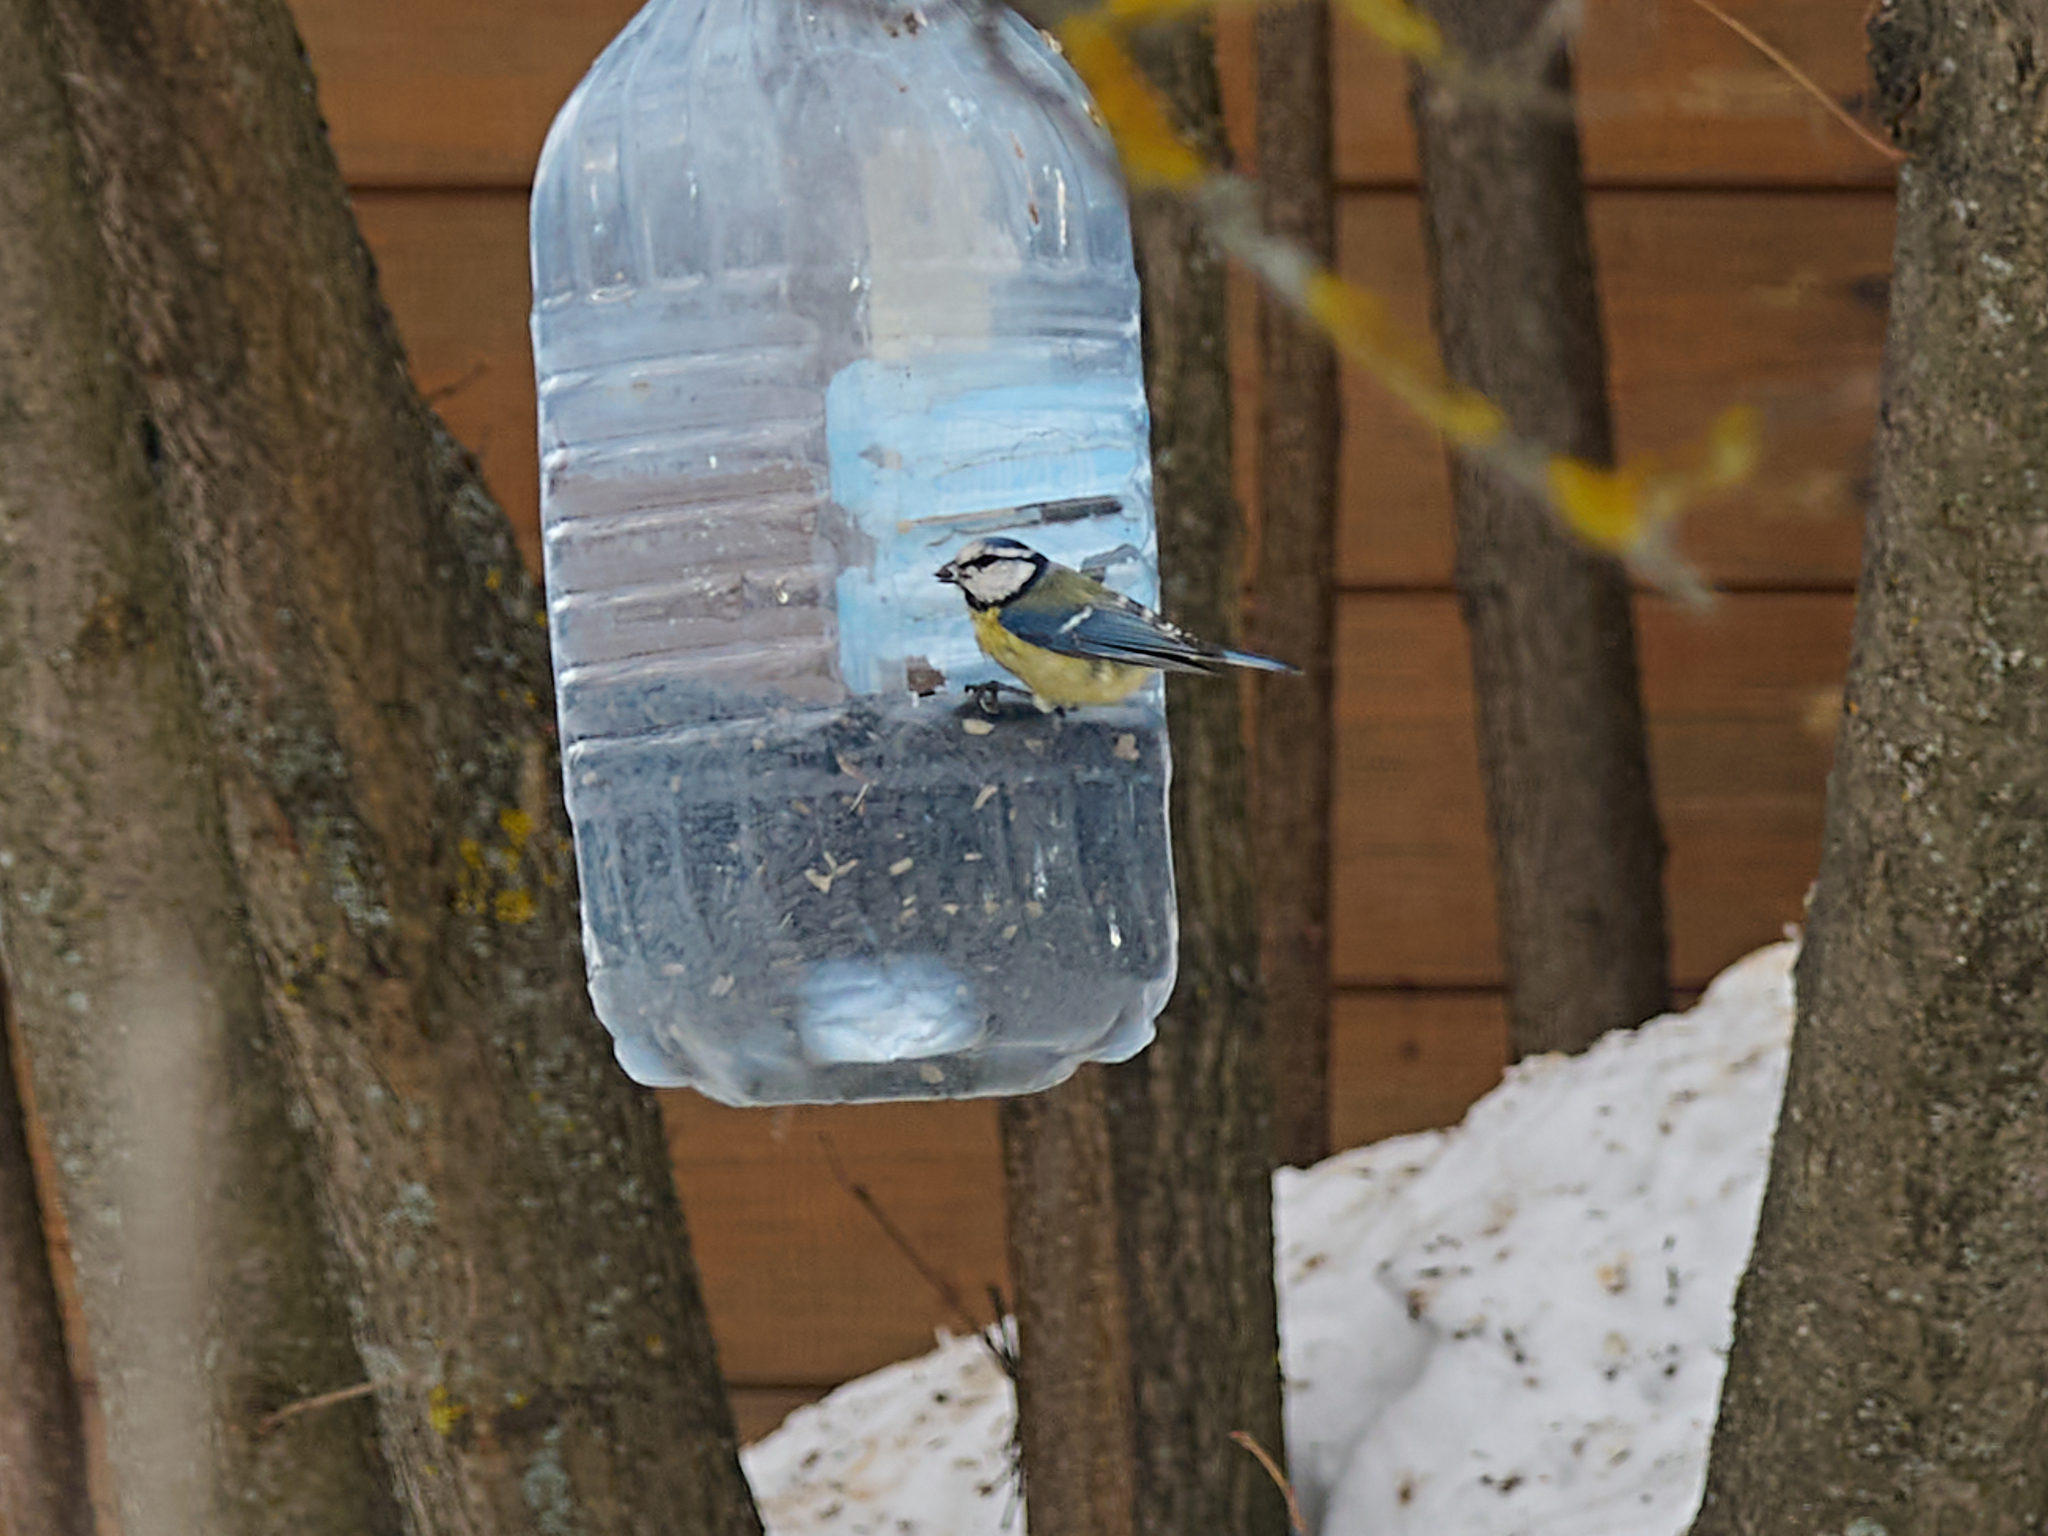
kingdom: Animalia
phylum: Chordata
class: Aves
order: Passeriformes
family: Paridae
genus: Cyanistes
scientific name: Cyanistes caeruleus
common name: Eurasian blue tit
